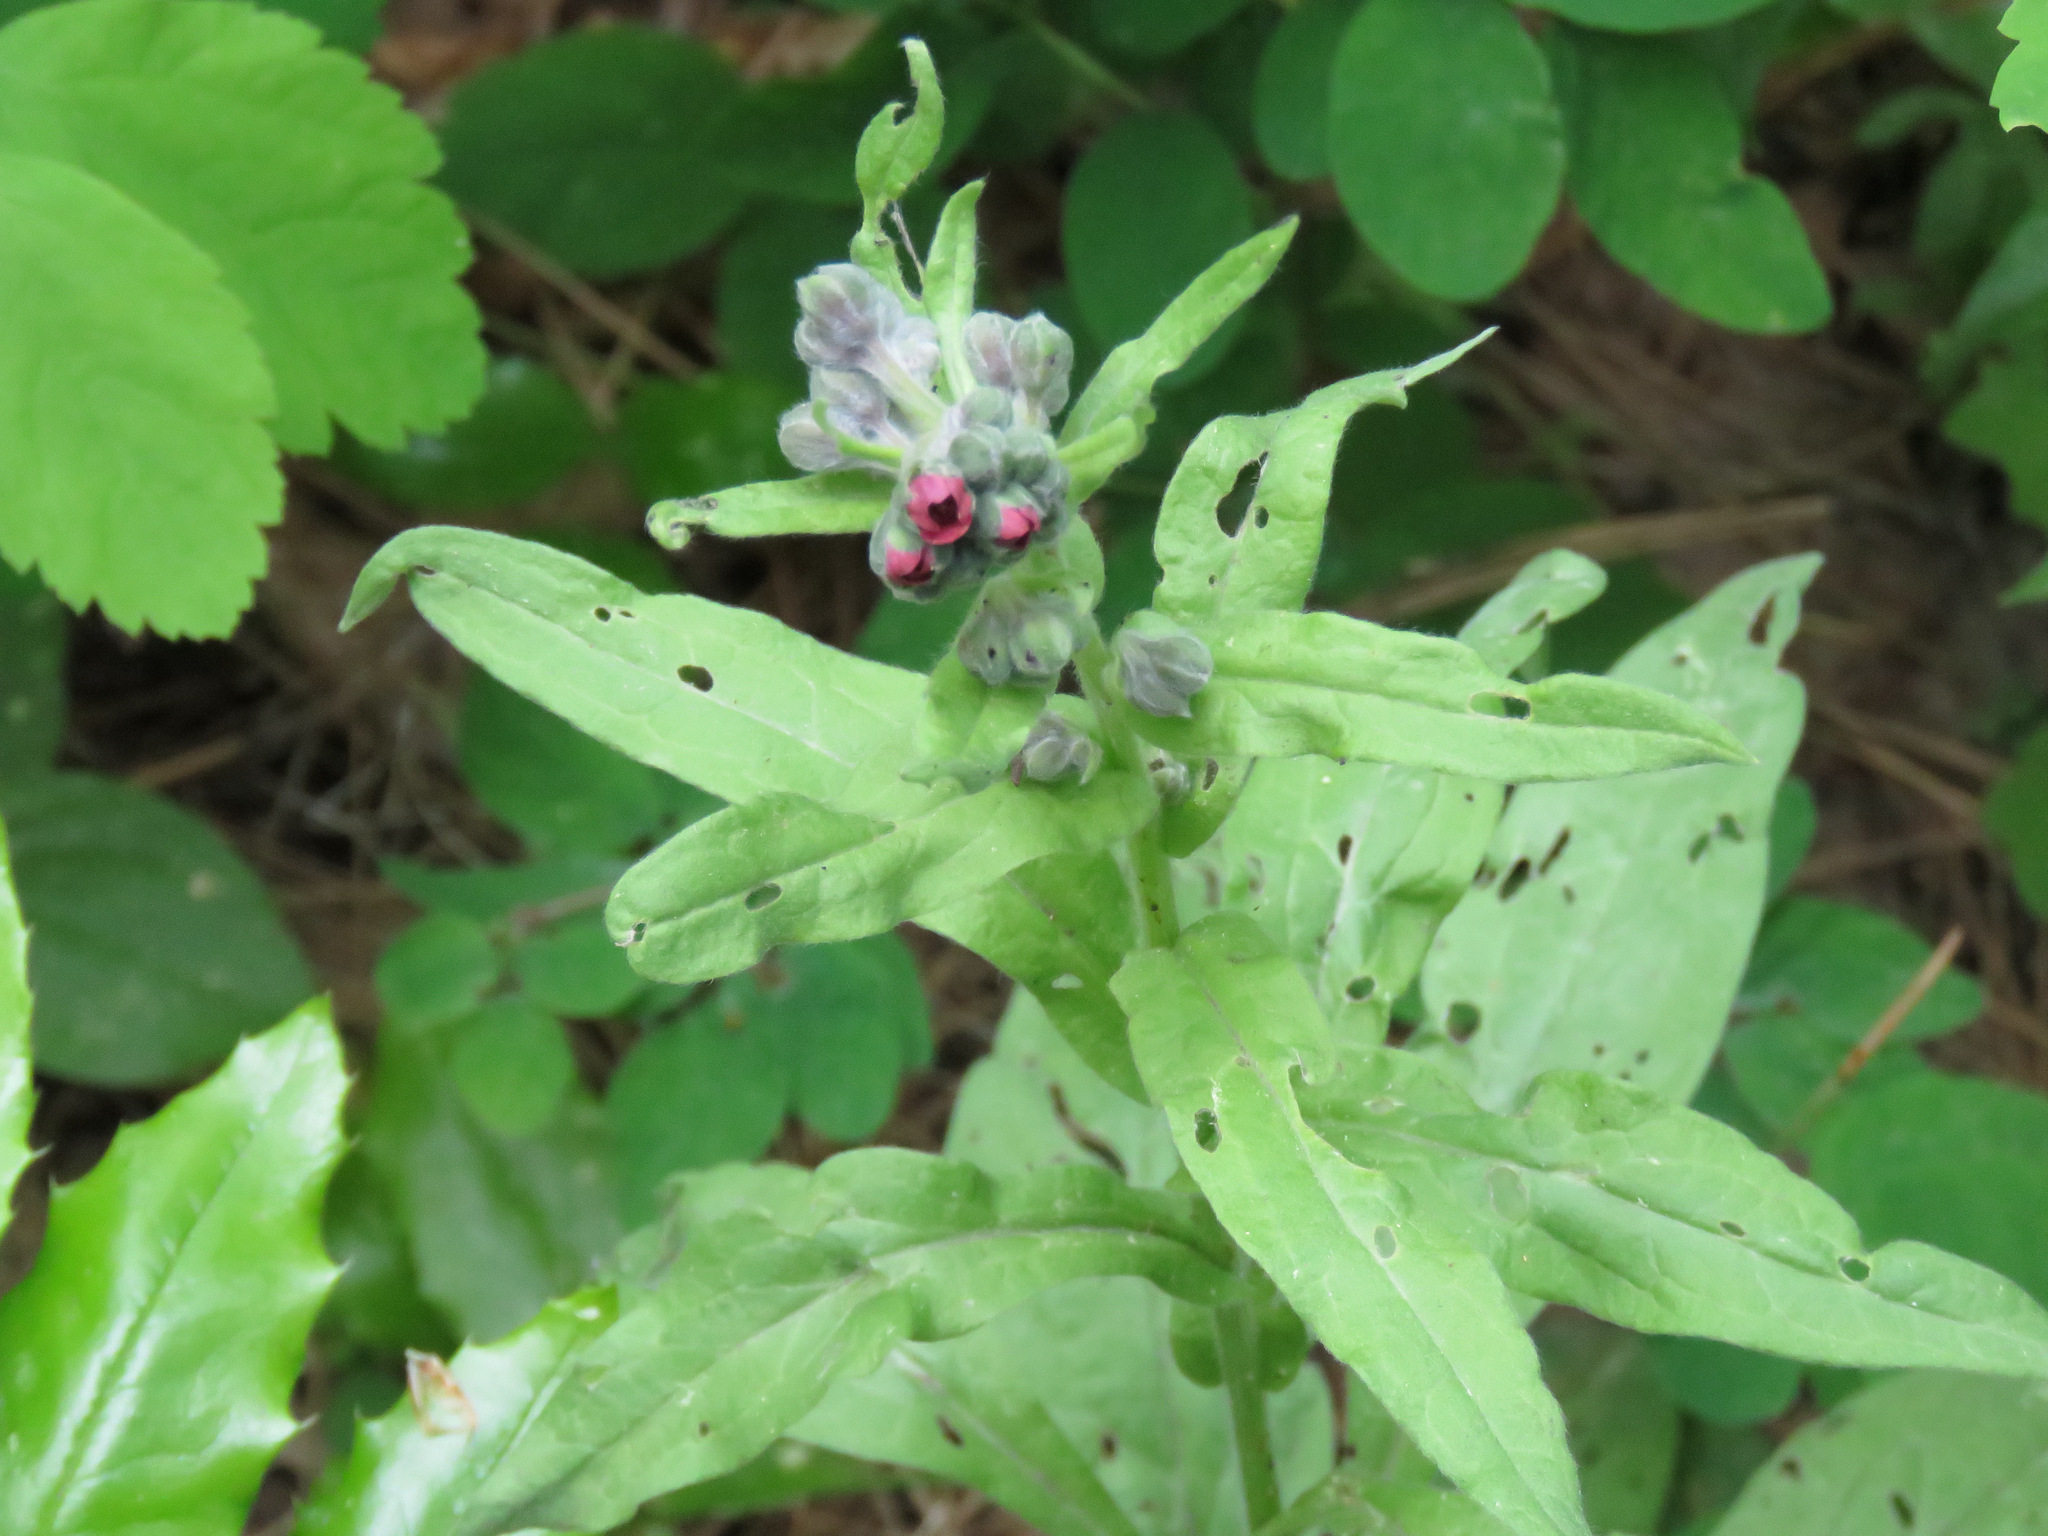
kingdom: Plantae
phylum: Tracheophyta
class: Magnoliopsida
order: Boraginales
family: Boraginaceae
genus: Cynoglossum
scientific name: Cynoglossum officinale
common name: Hound's-tongue
